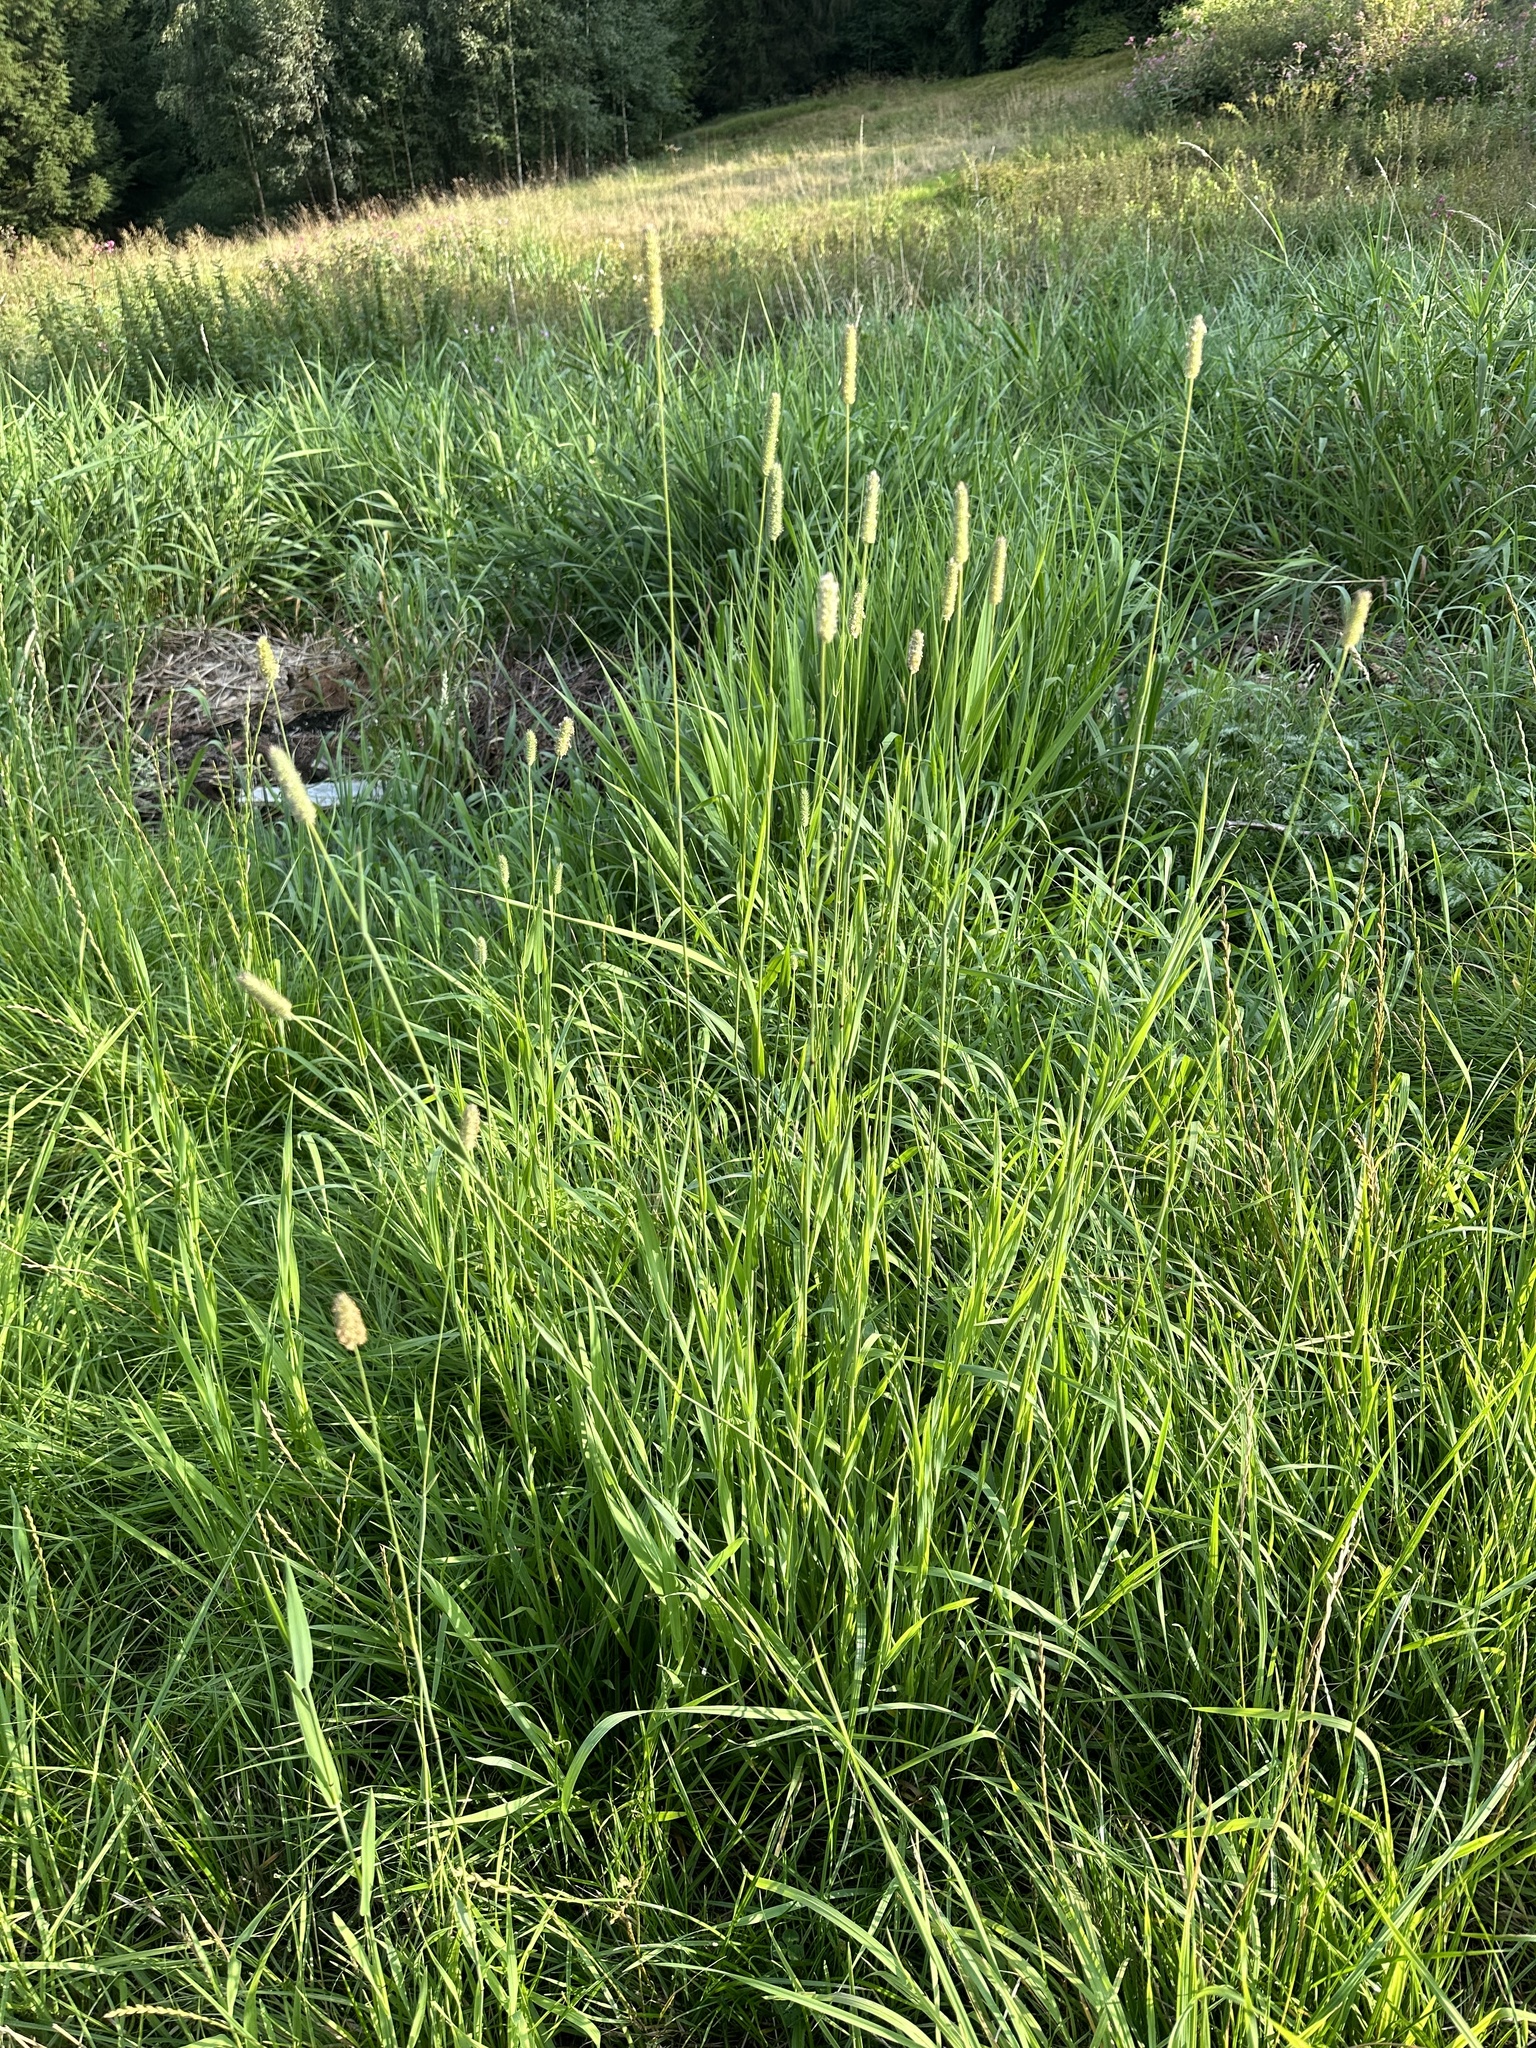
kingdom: Plantae
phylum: Tracheophyta
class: Liliopsida
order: Poales
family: Poaceae
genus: Phleum
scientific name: Phleum pratense
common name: Timothy grass
